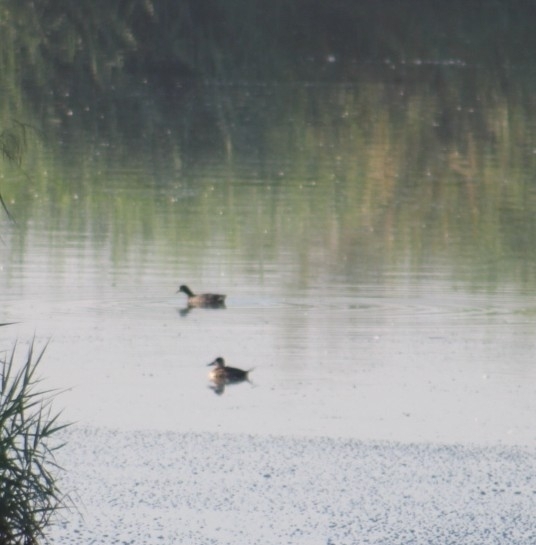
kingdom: Animalia
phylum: Chordata
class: Aves
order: Anseriformes
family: Anatidae
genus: Oxyura
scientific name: Oxyura jamaicensis
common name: Ruddy duck
